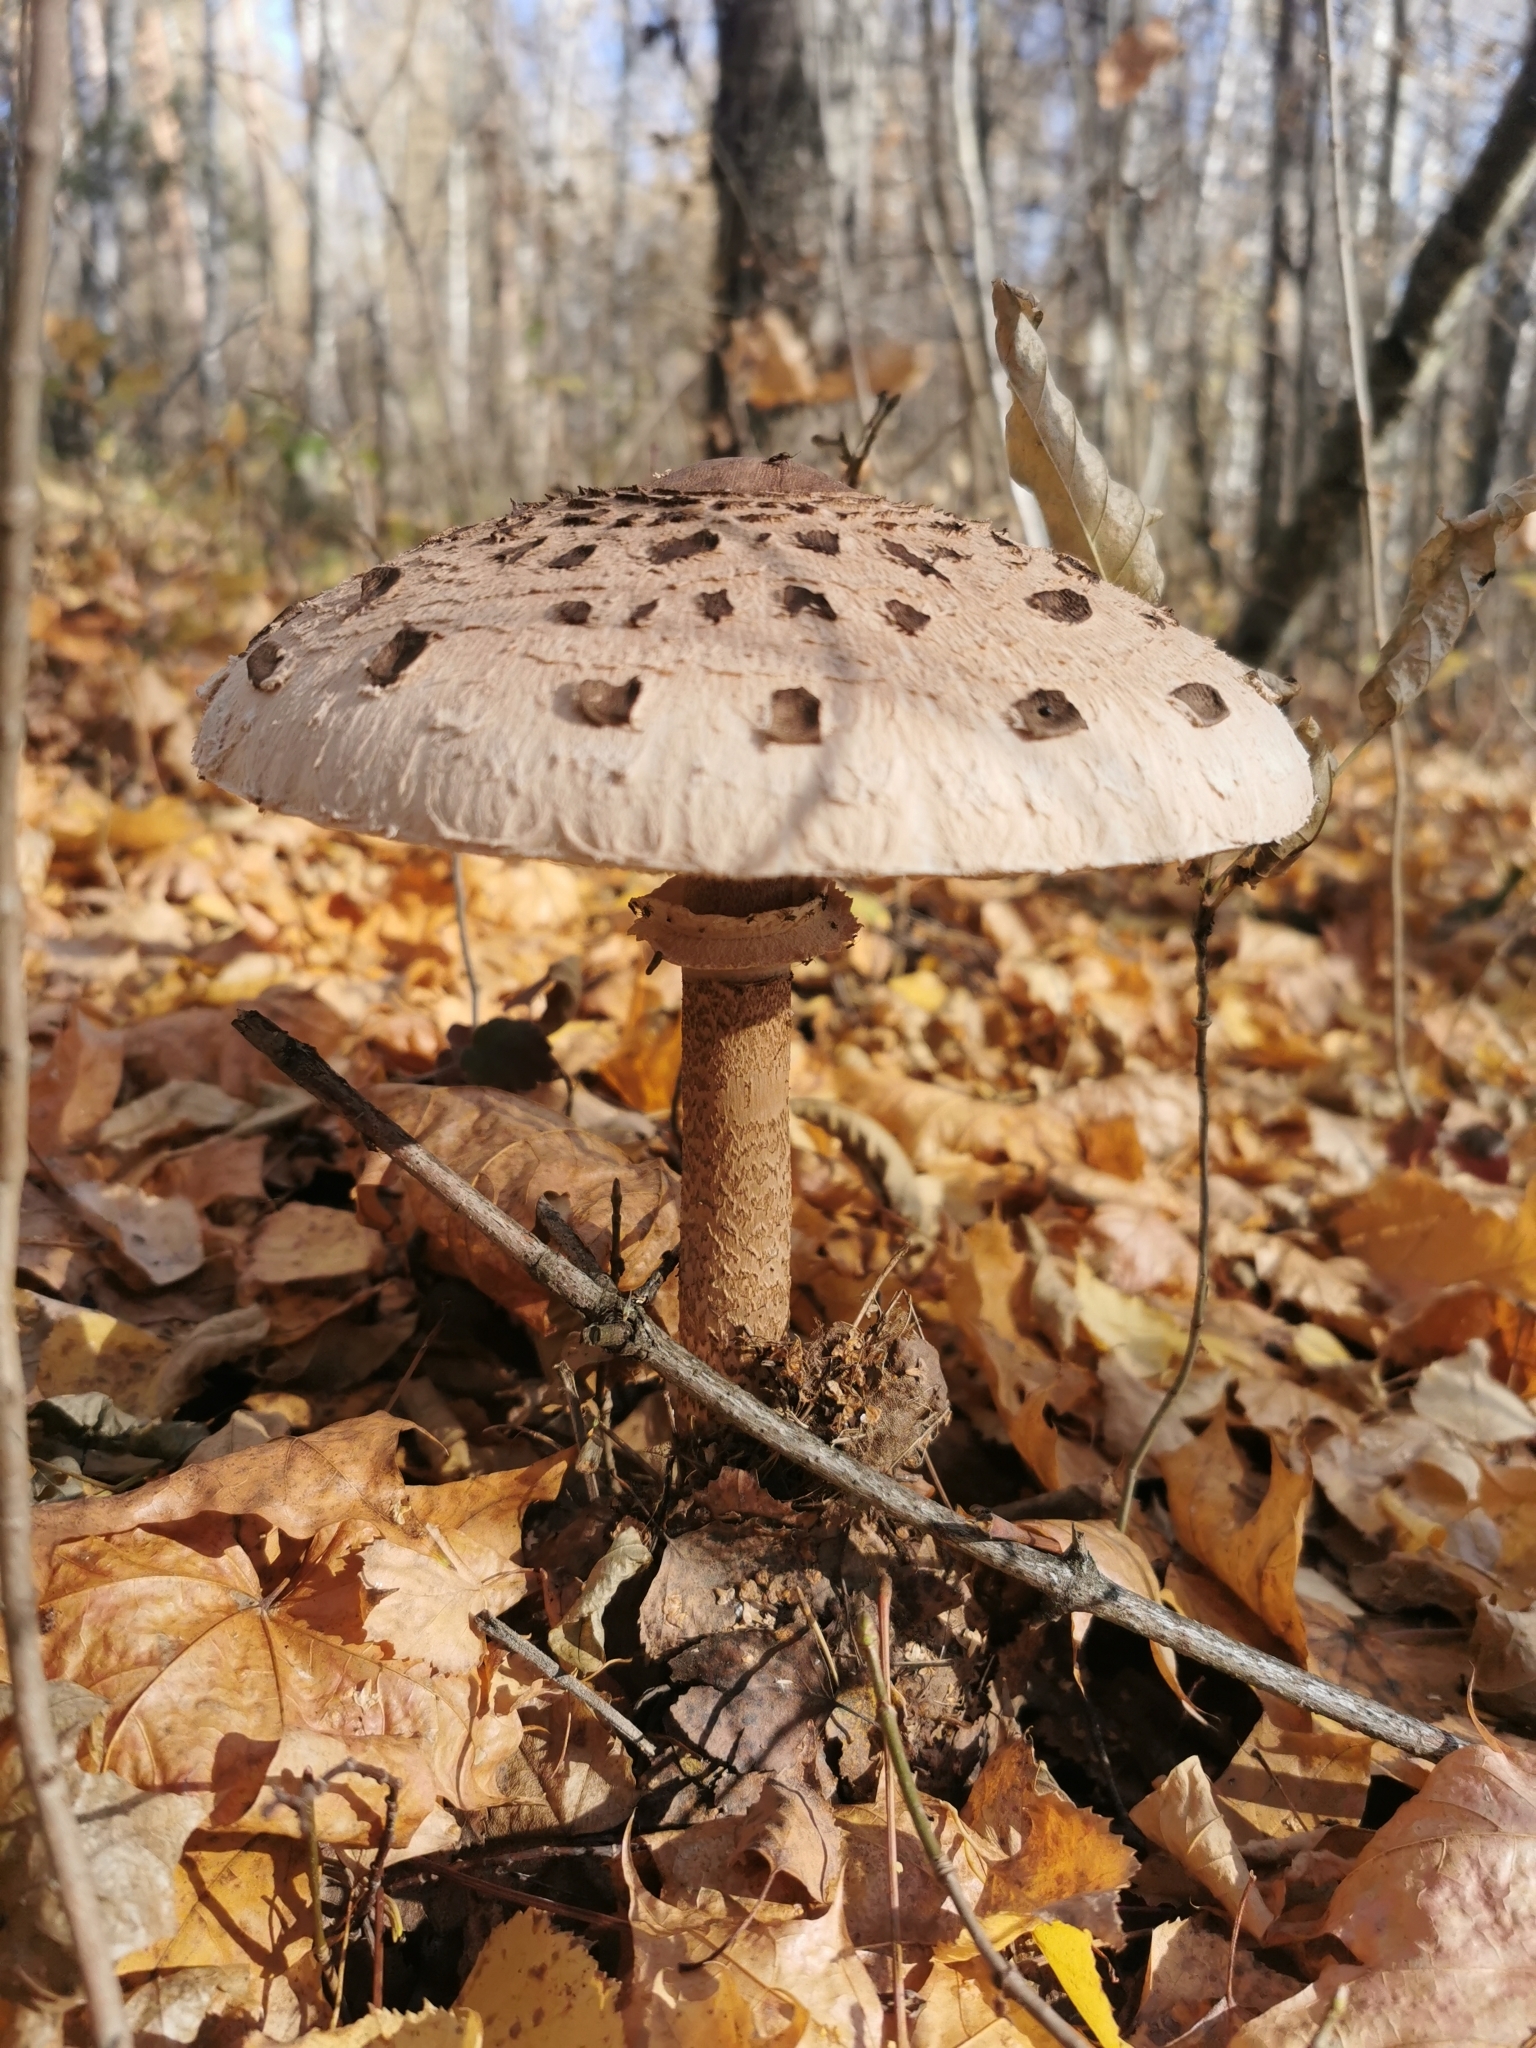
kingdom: Fungi
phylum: Basidiomycota
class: Agaricomycetes
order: Agaricales
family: Agaricaceae
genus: Macrolepiota
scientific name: Macrolepiota procera
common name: Parasol
